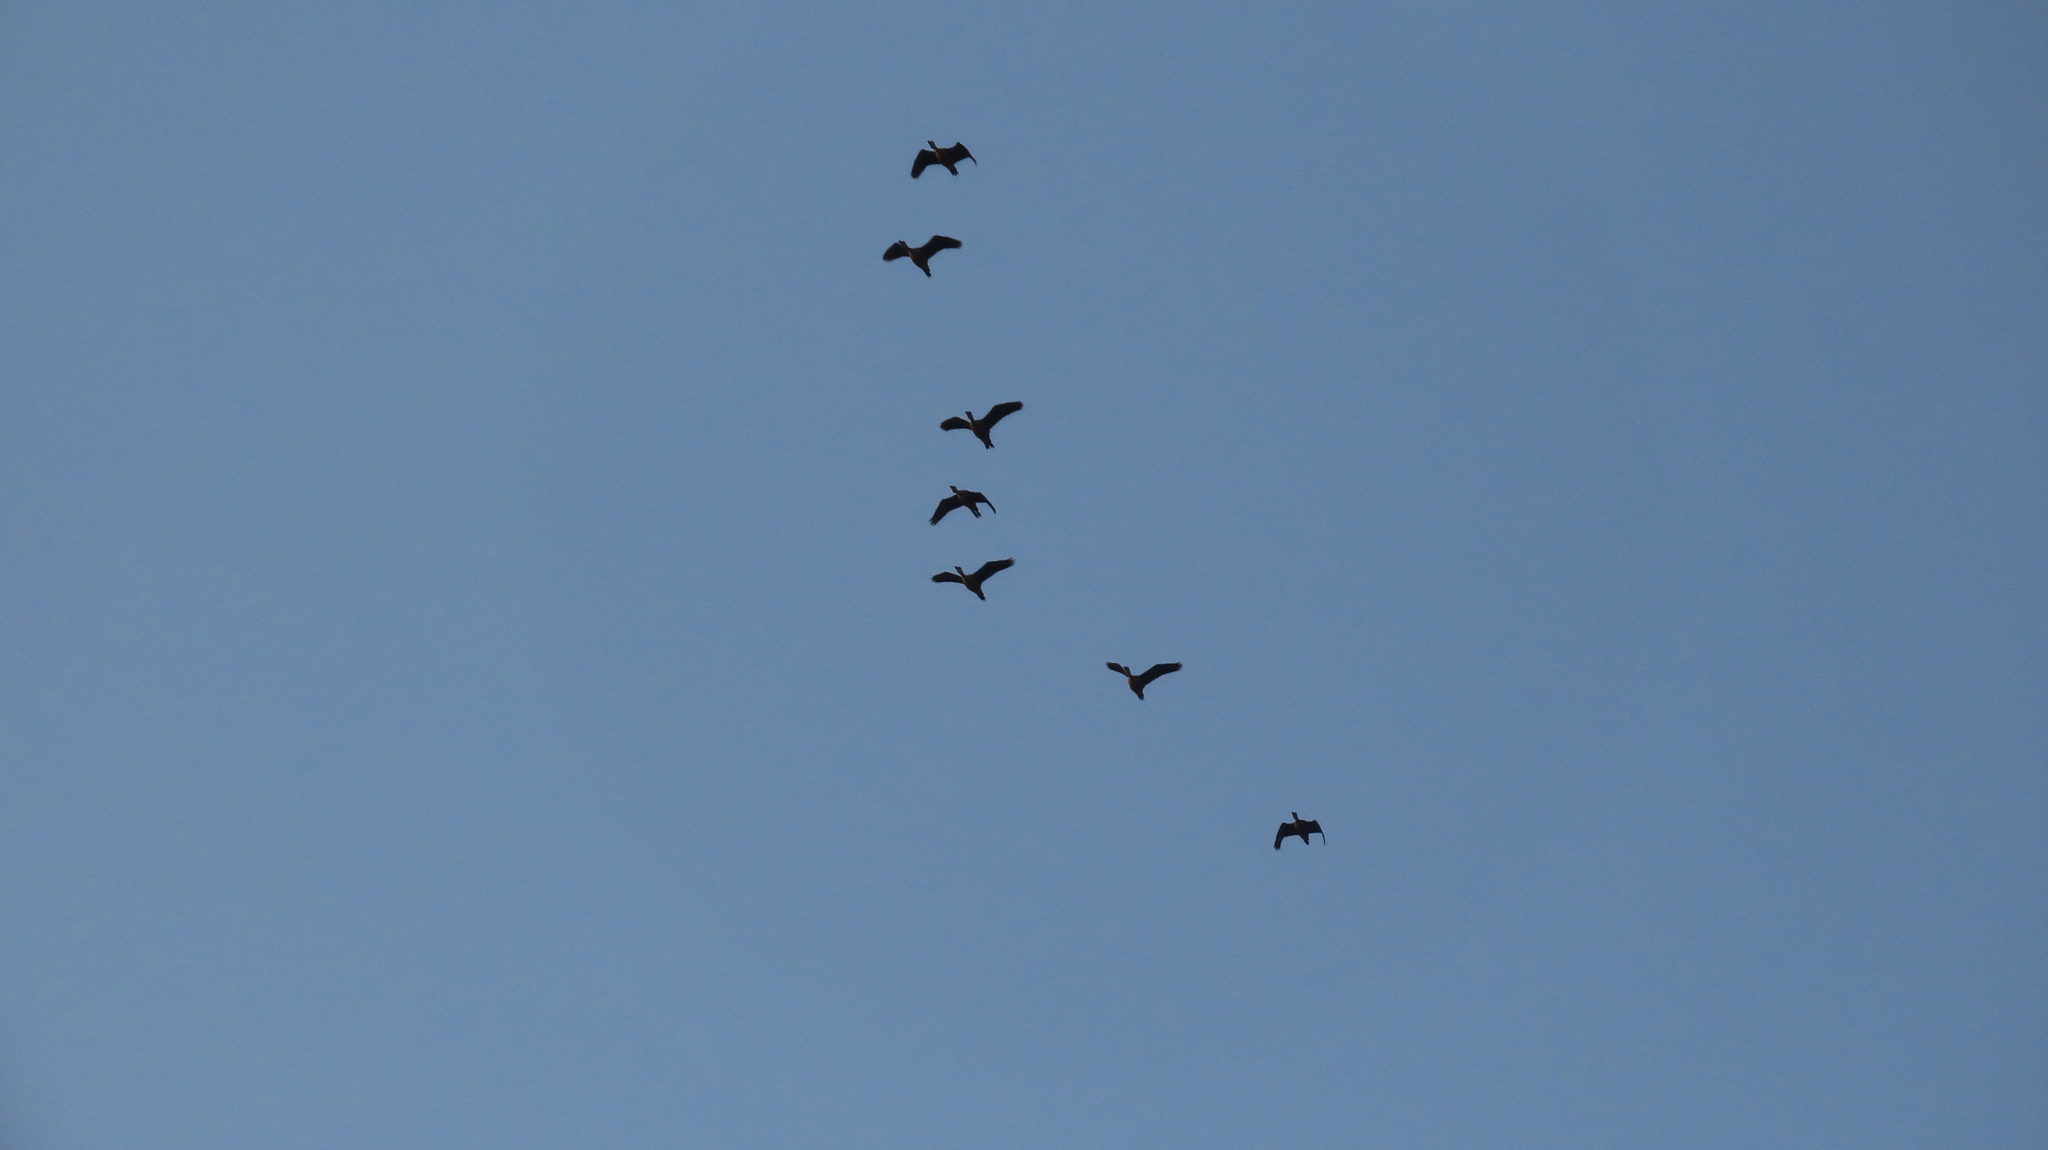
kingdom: Animalia
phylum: Chordata
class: Aves
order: Anseriformes
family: Anatidae
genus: Dendrocygna
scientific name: Dendrocygna javanica
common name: Lesser whistling-duck
